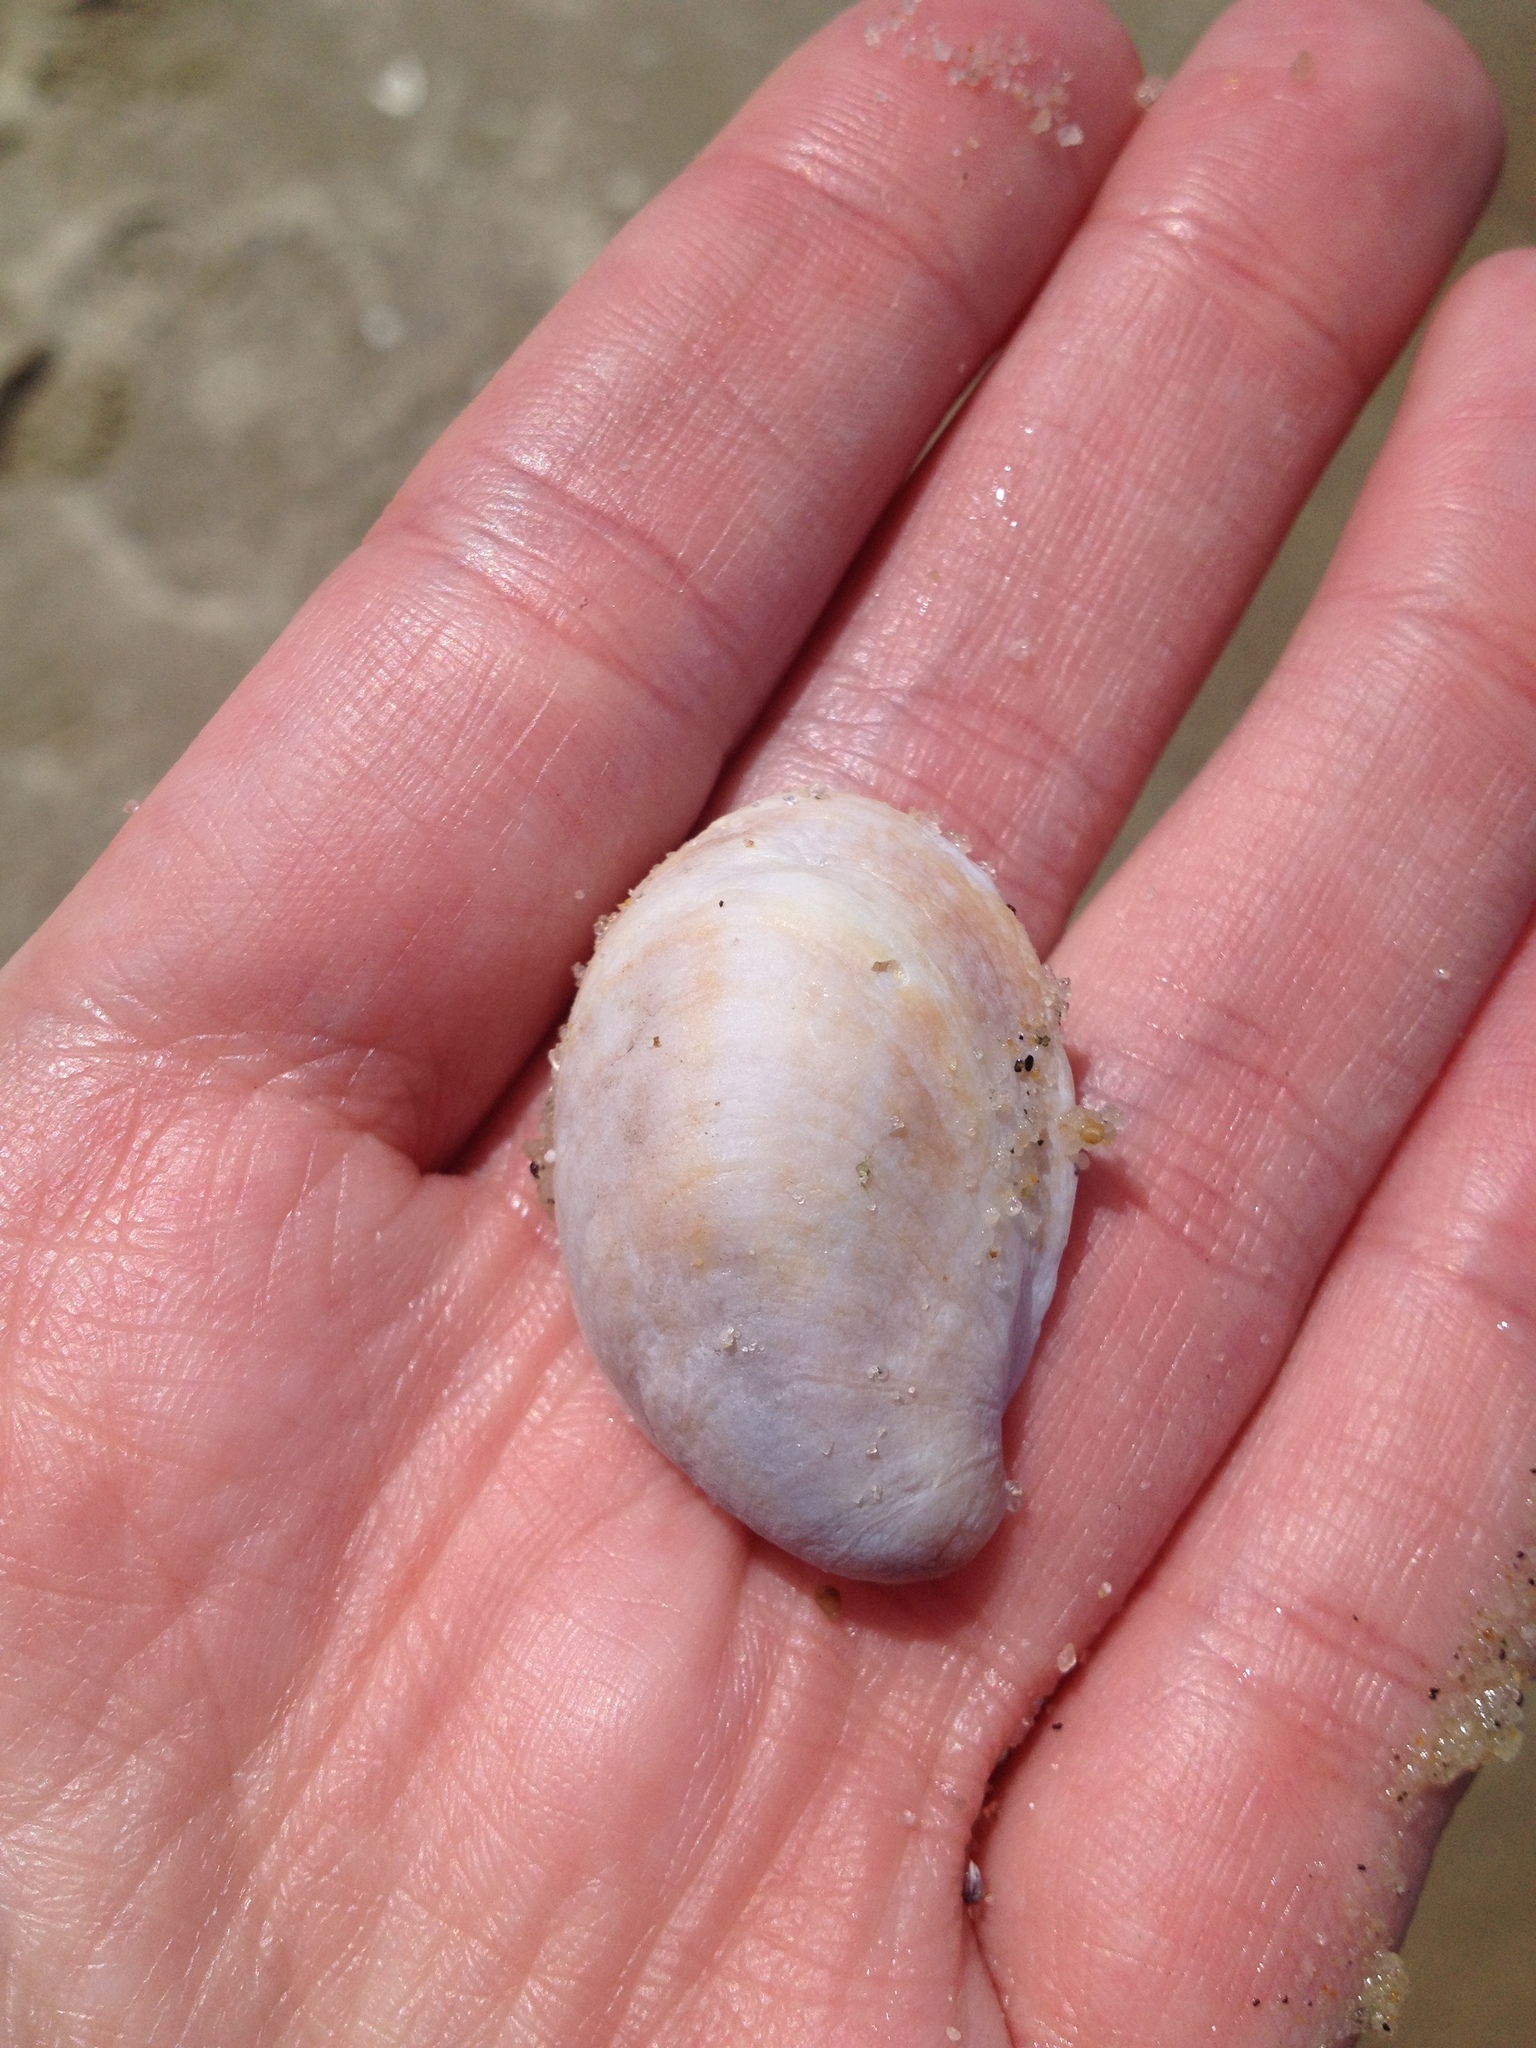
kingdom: Animalia
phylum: Mollusca
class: Gastropoda
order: Littorinimorpha
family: Calyptraeidae
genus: Crepidula
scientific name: Crepidula fornicata
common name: Slipper limpet
